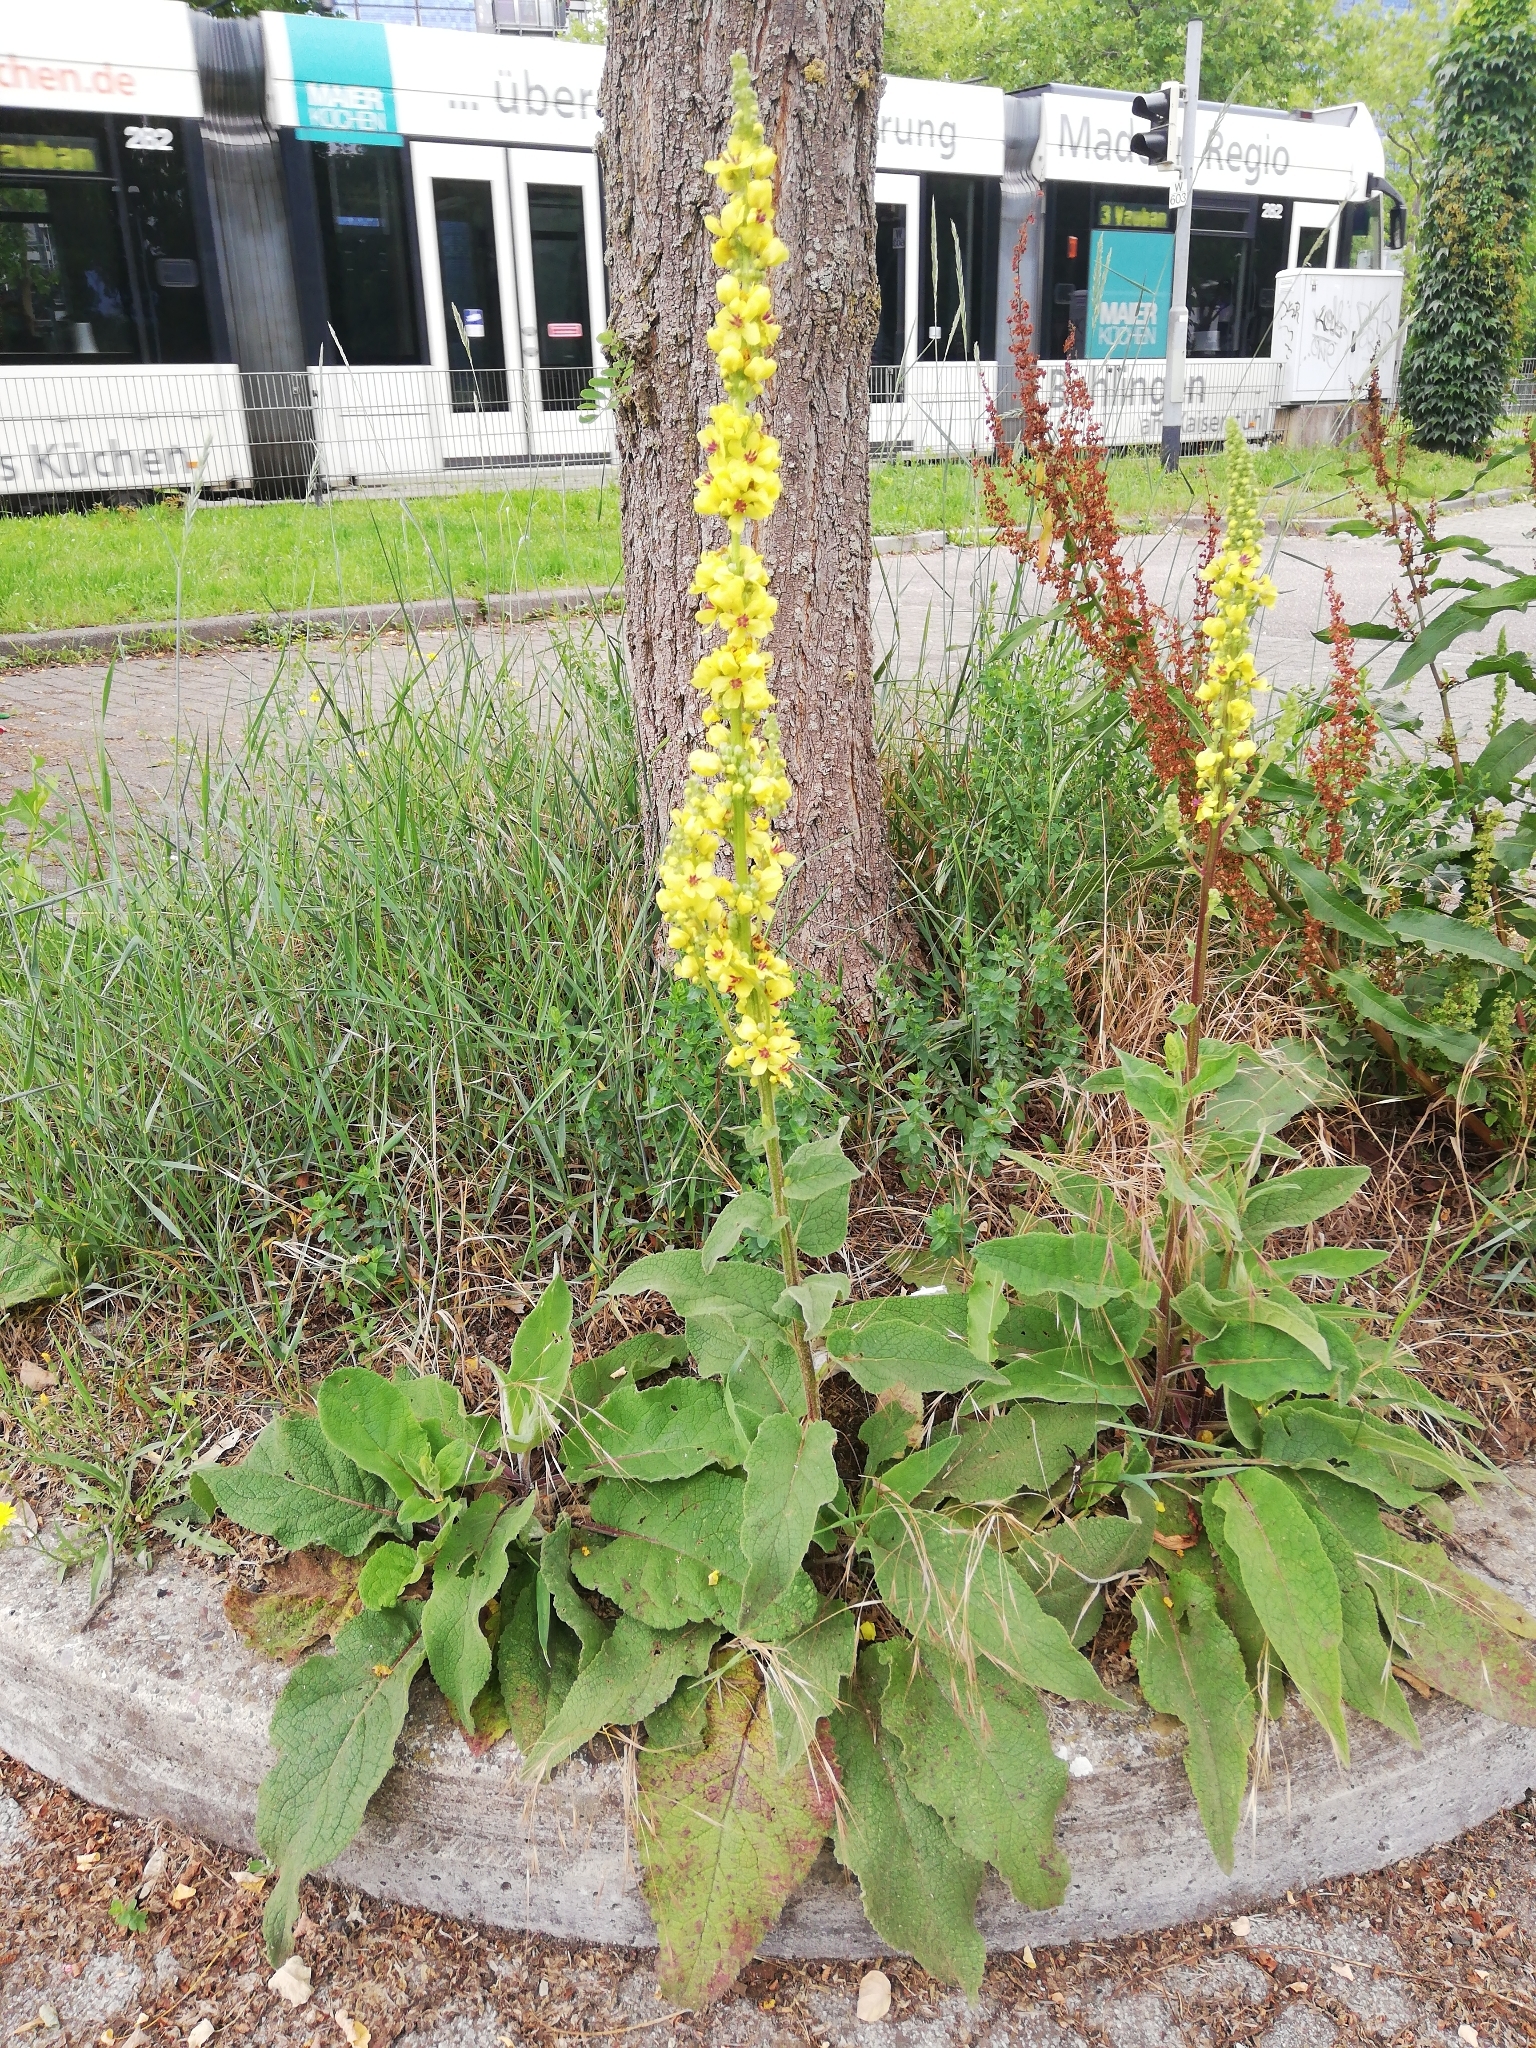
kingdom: Plantae
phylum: Tracheophyta
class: Magnoliopsida
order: Lamiales
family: Scrophulariaceae
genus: Verbascum
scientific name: Verbascum nigrum
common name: Dark mullein
